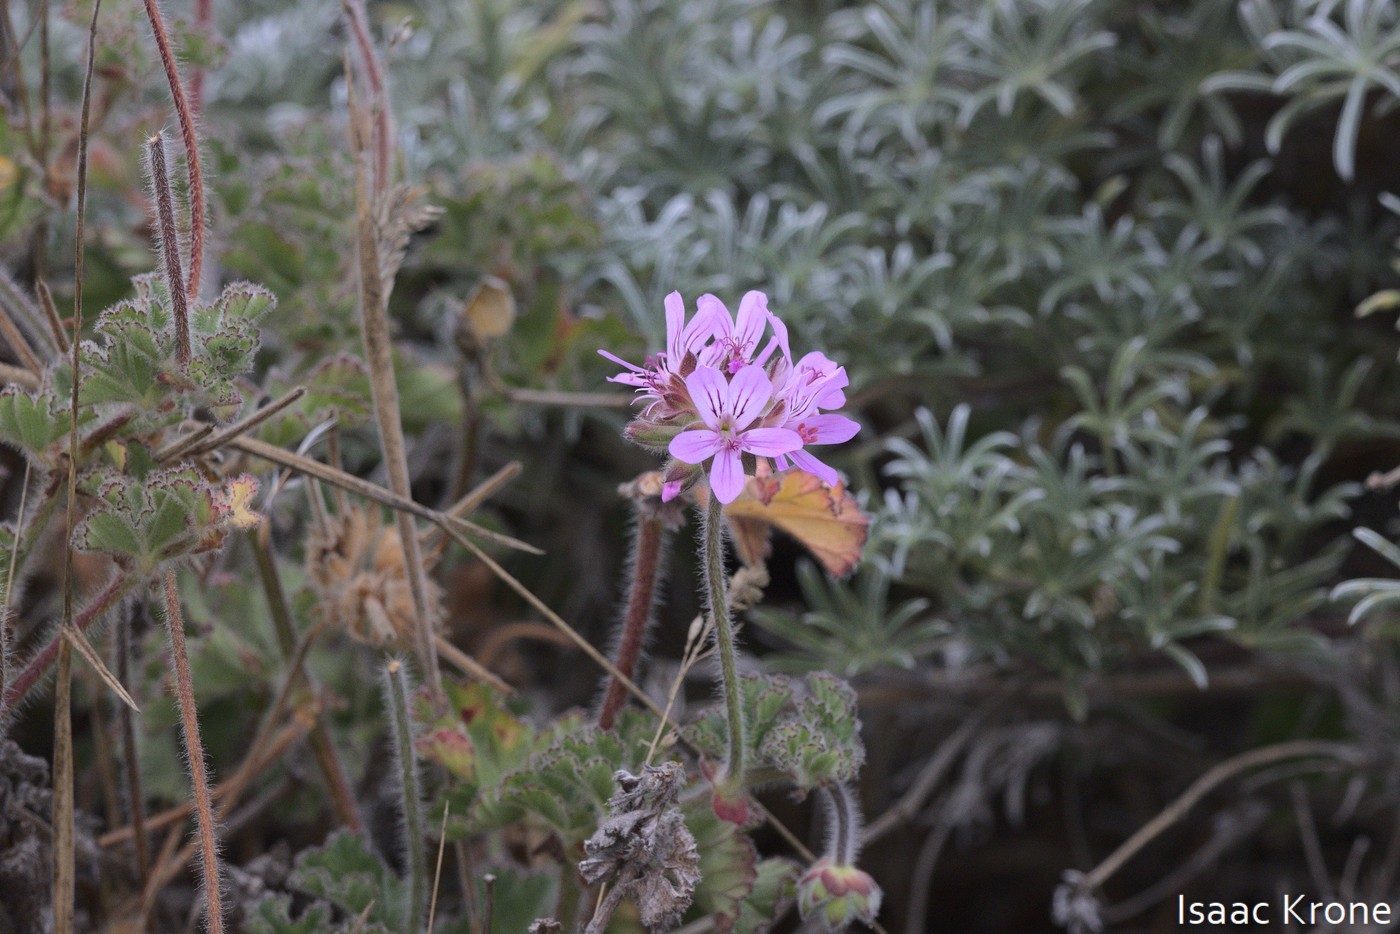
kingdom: Plantae
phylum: Tracheophyta
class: Magnoliopsida
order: Geraniales
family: Geraniaceae
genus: Pelargonium
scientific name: Pelargonium capitatum
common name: Rose scented geranium
